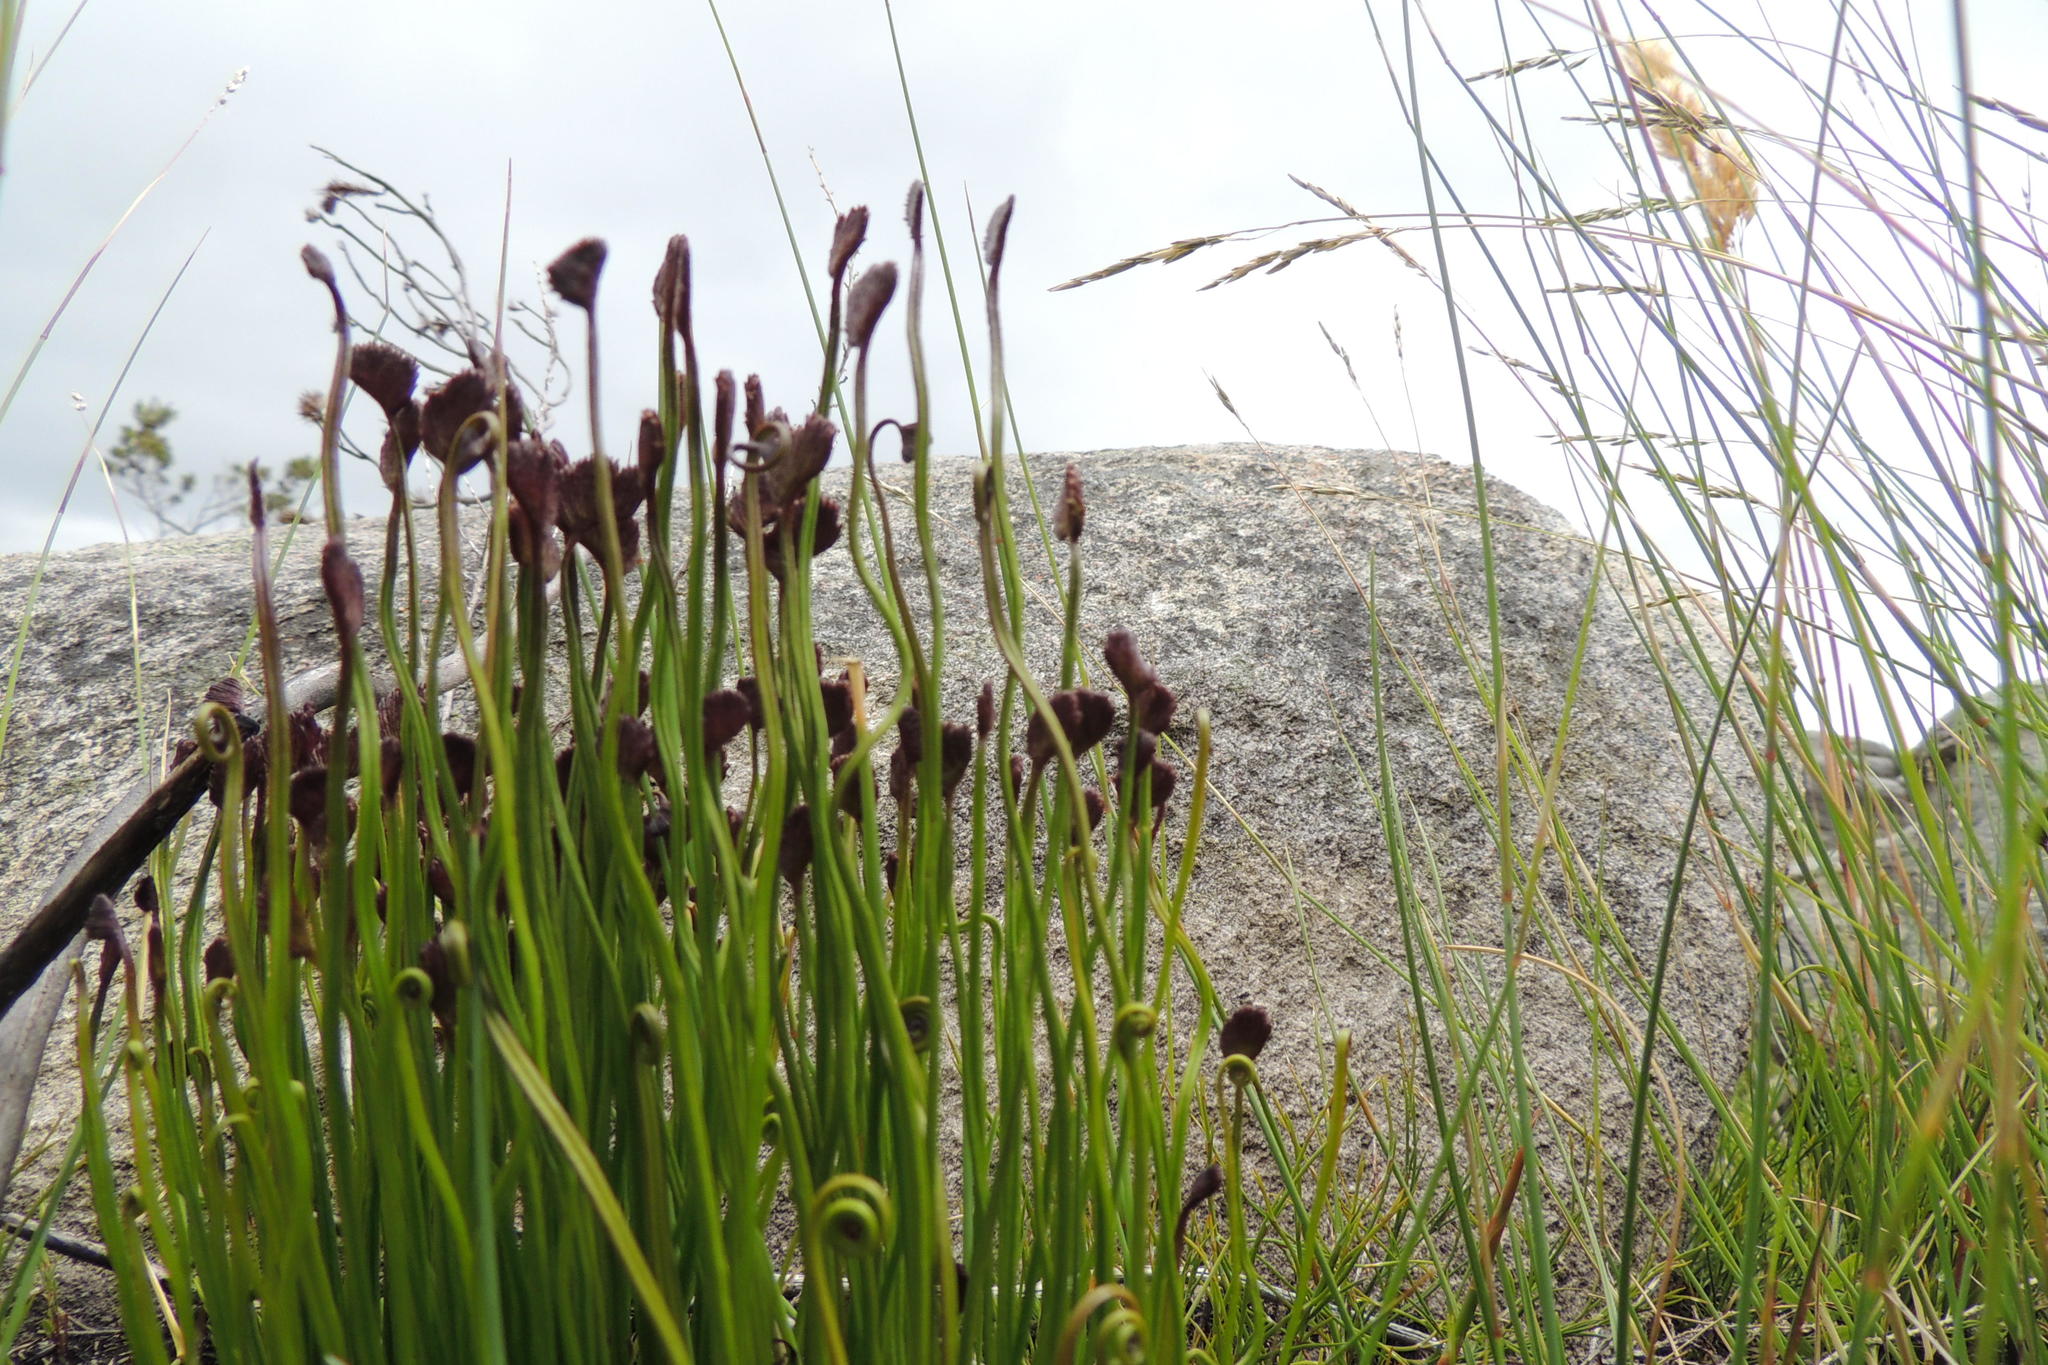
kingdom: Plantae
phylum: Tracheophyta
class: Polypodiopsida
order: Schizaeales
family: Schizaeaceae
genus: Schizaea
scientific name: Schizaea pectinata
